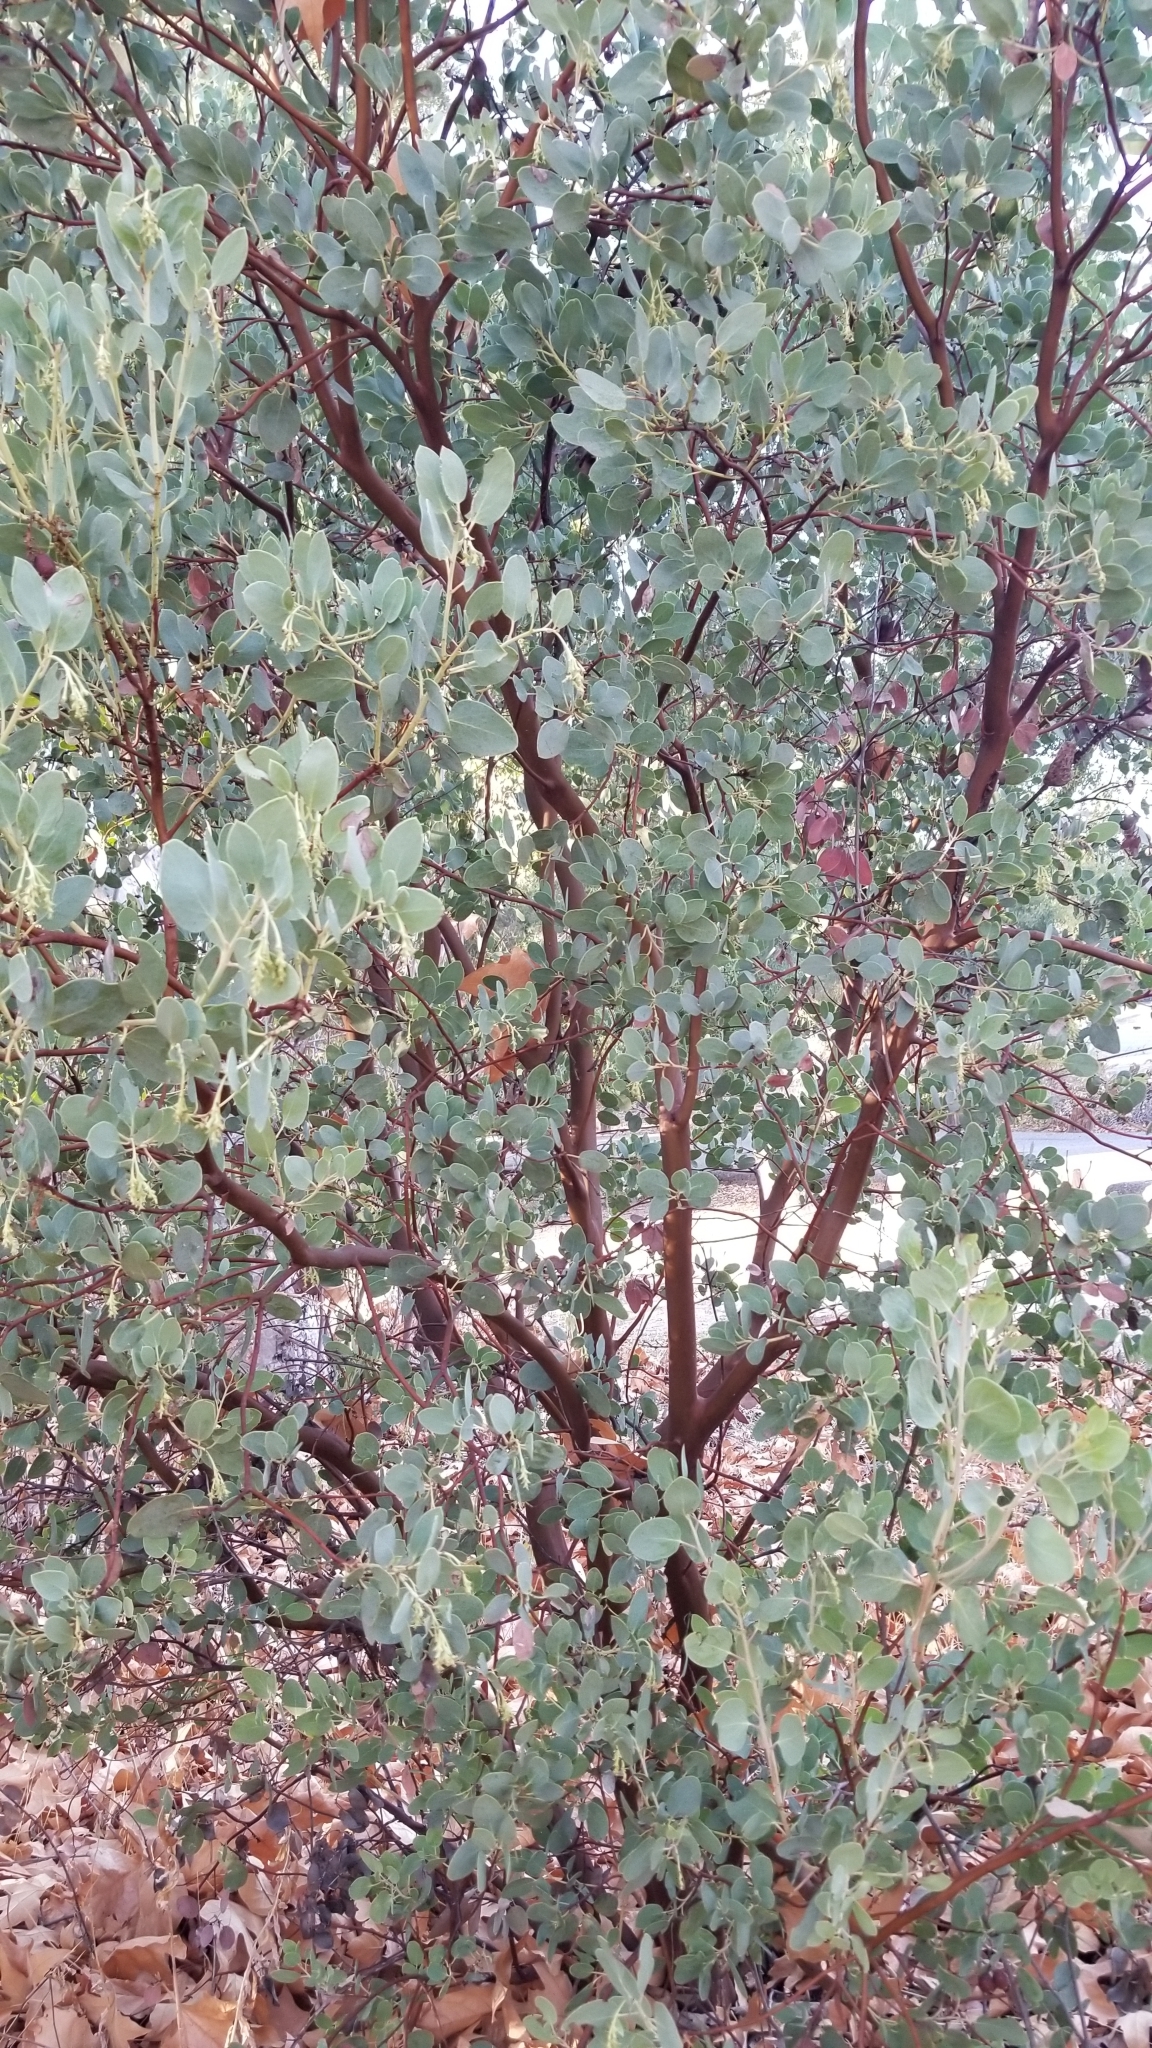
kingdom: Plantae
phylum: Tracheophyta
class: Magnoliopsida
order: Ericales
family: Ericaceae
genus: Arctostaphylos
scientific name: Arctostaphylos glauca
